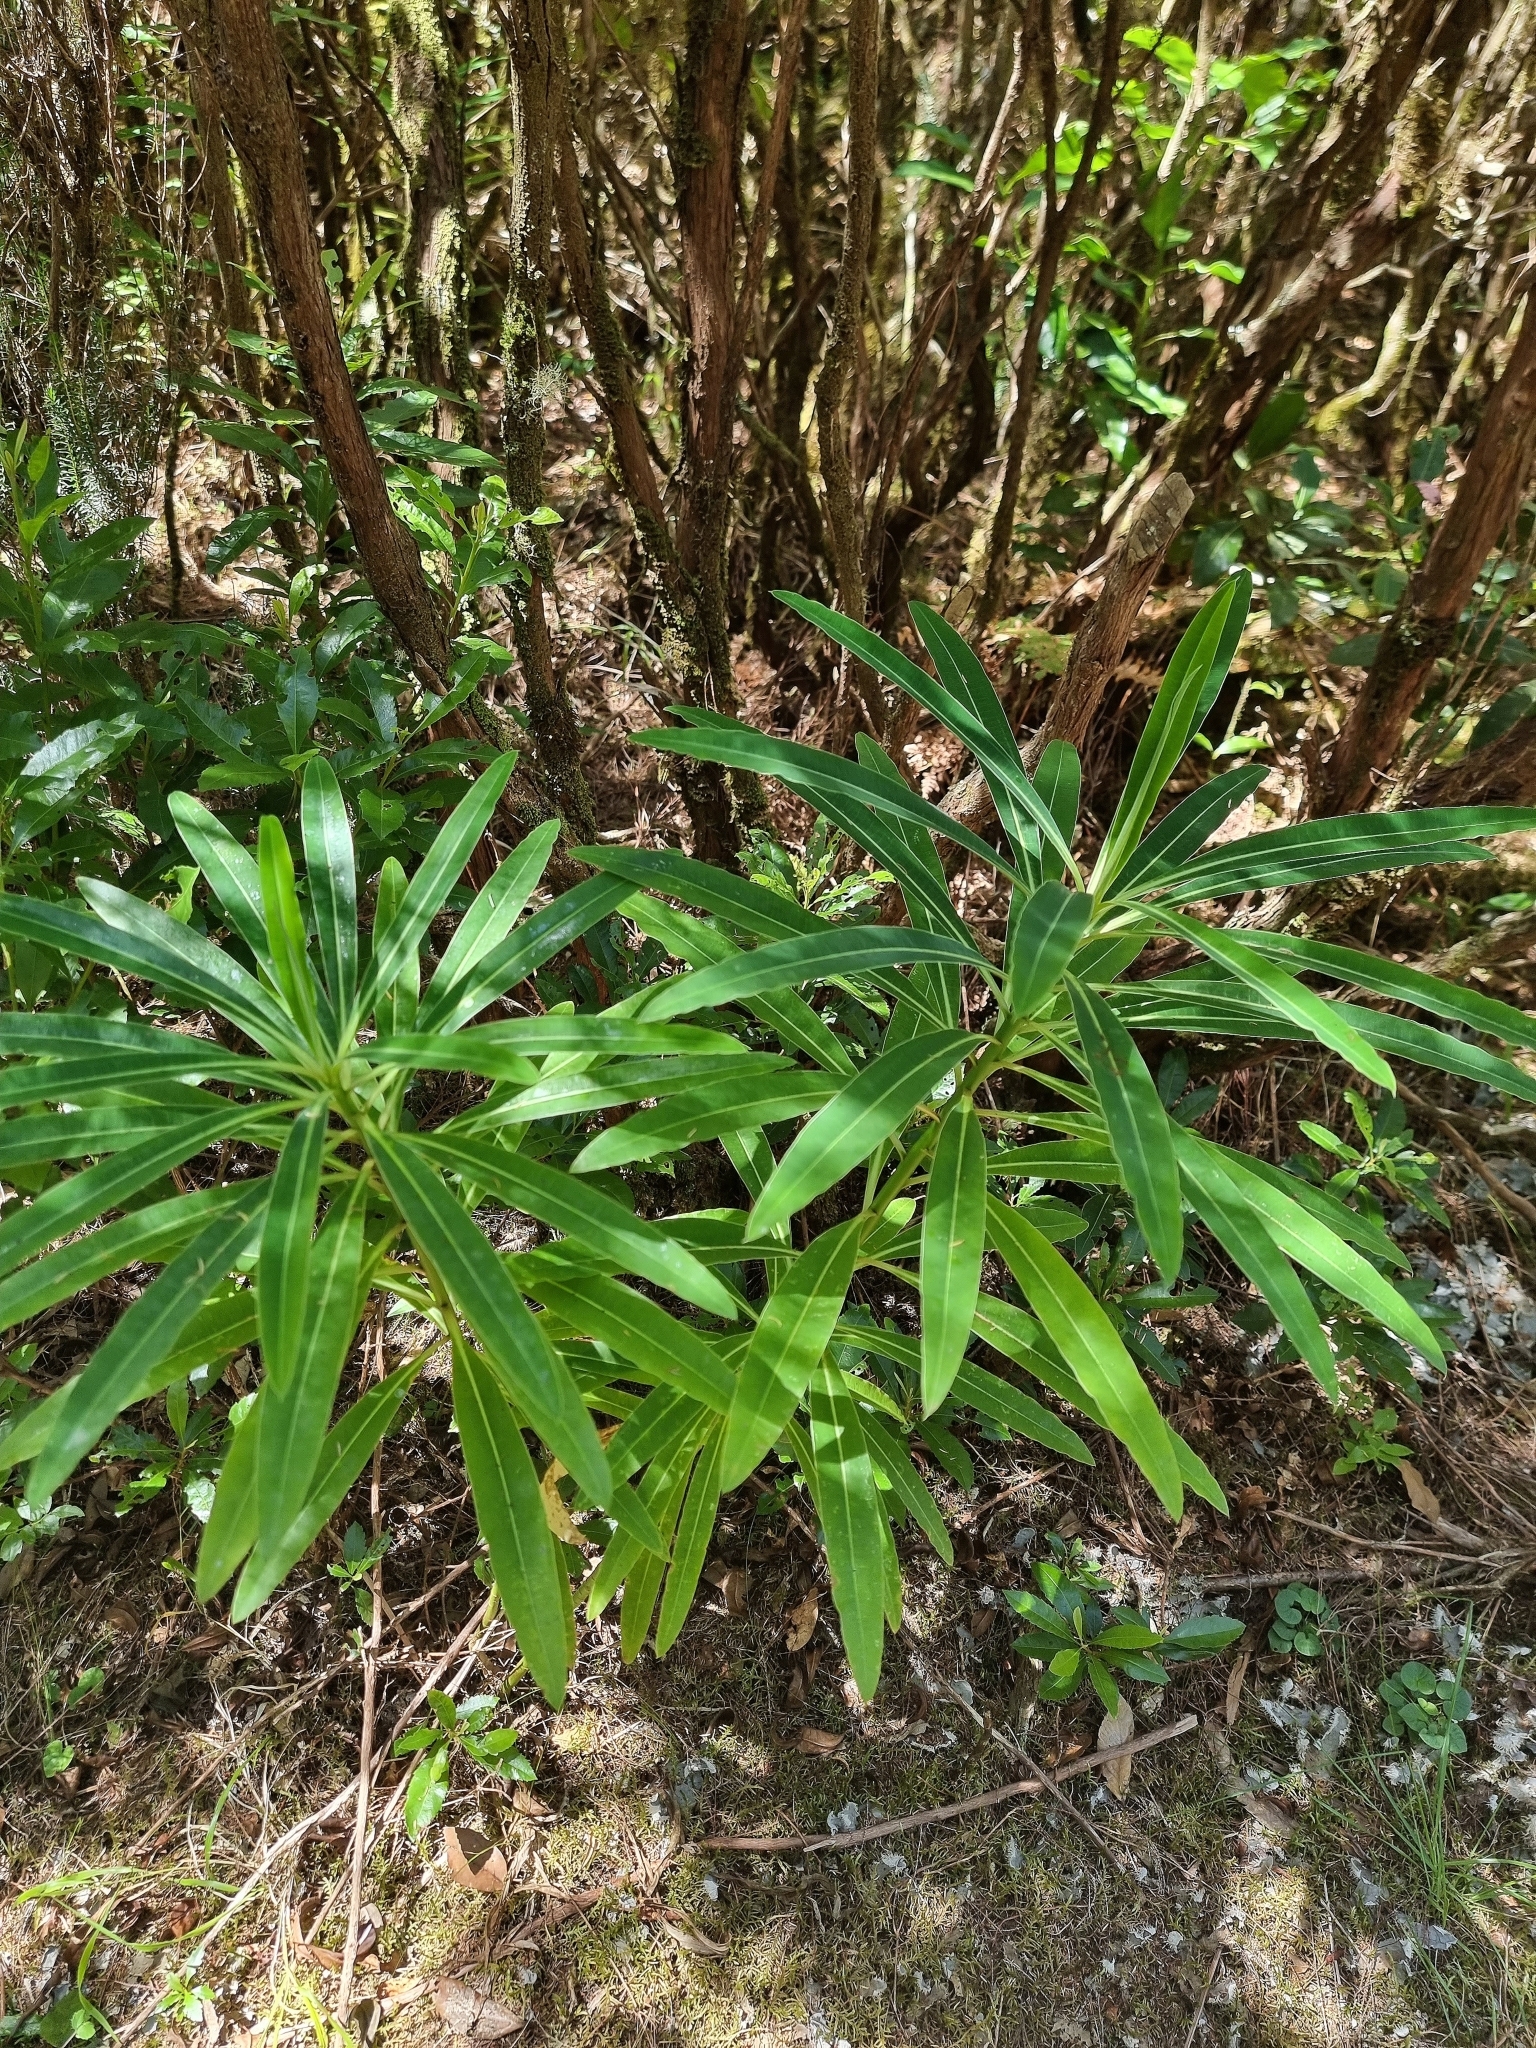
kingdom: Plantae
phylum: Tracheophyta
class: Magnoliopsida
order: Malpighiales
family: Euphorbiaceae
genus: Euphorbia
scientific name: Euphorbia mellifera
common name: Canary spurge
